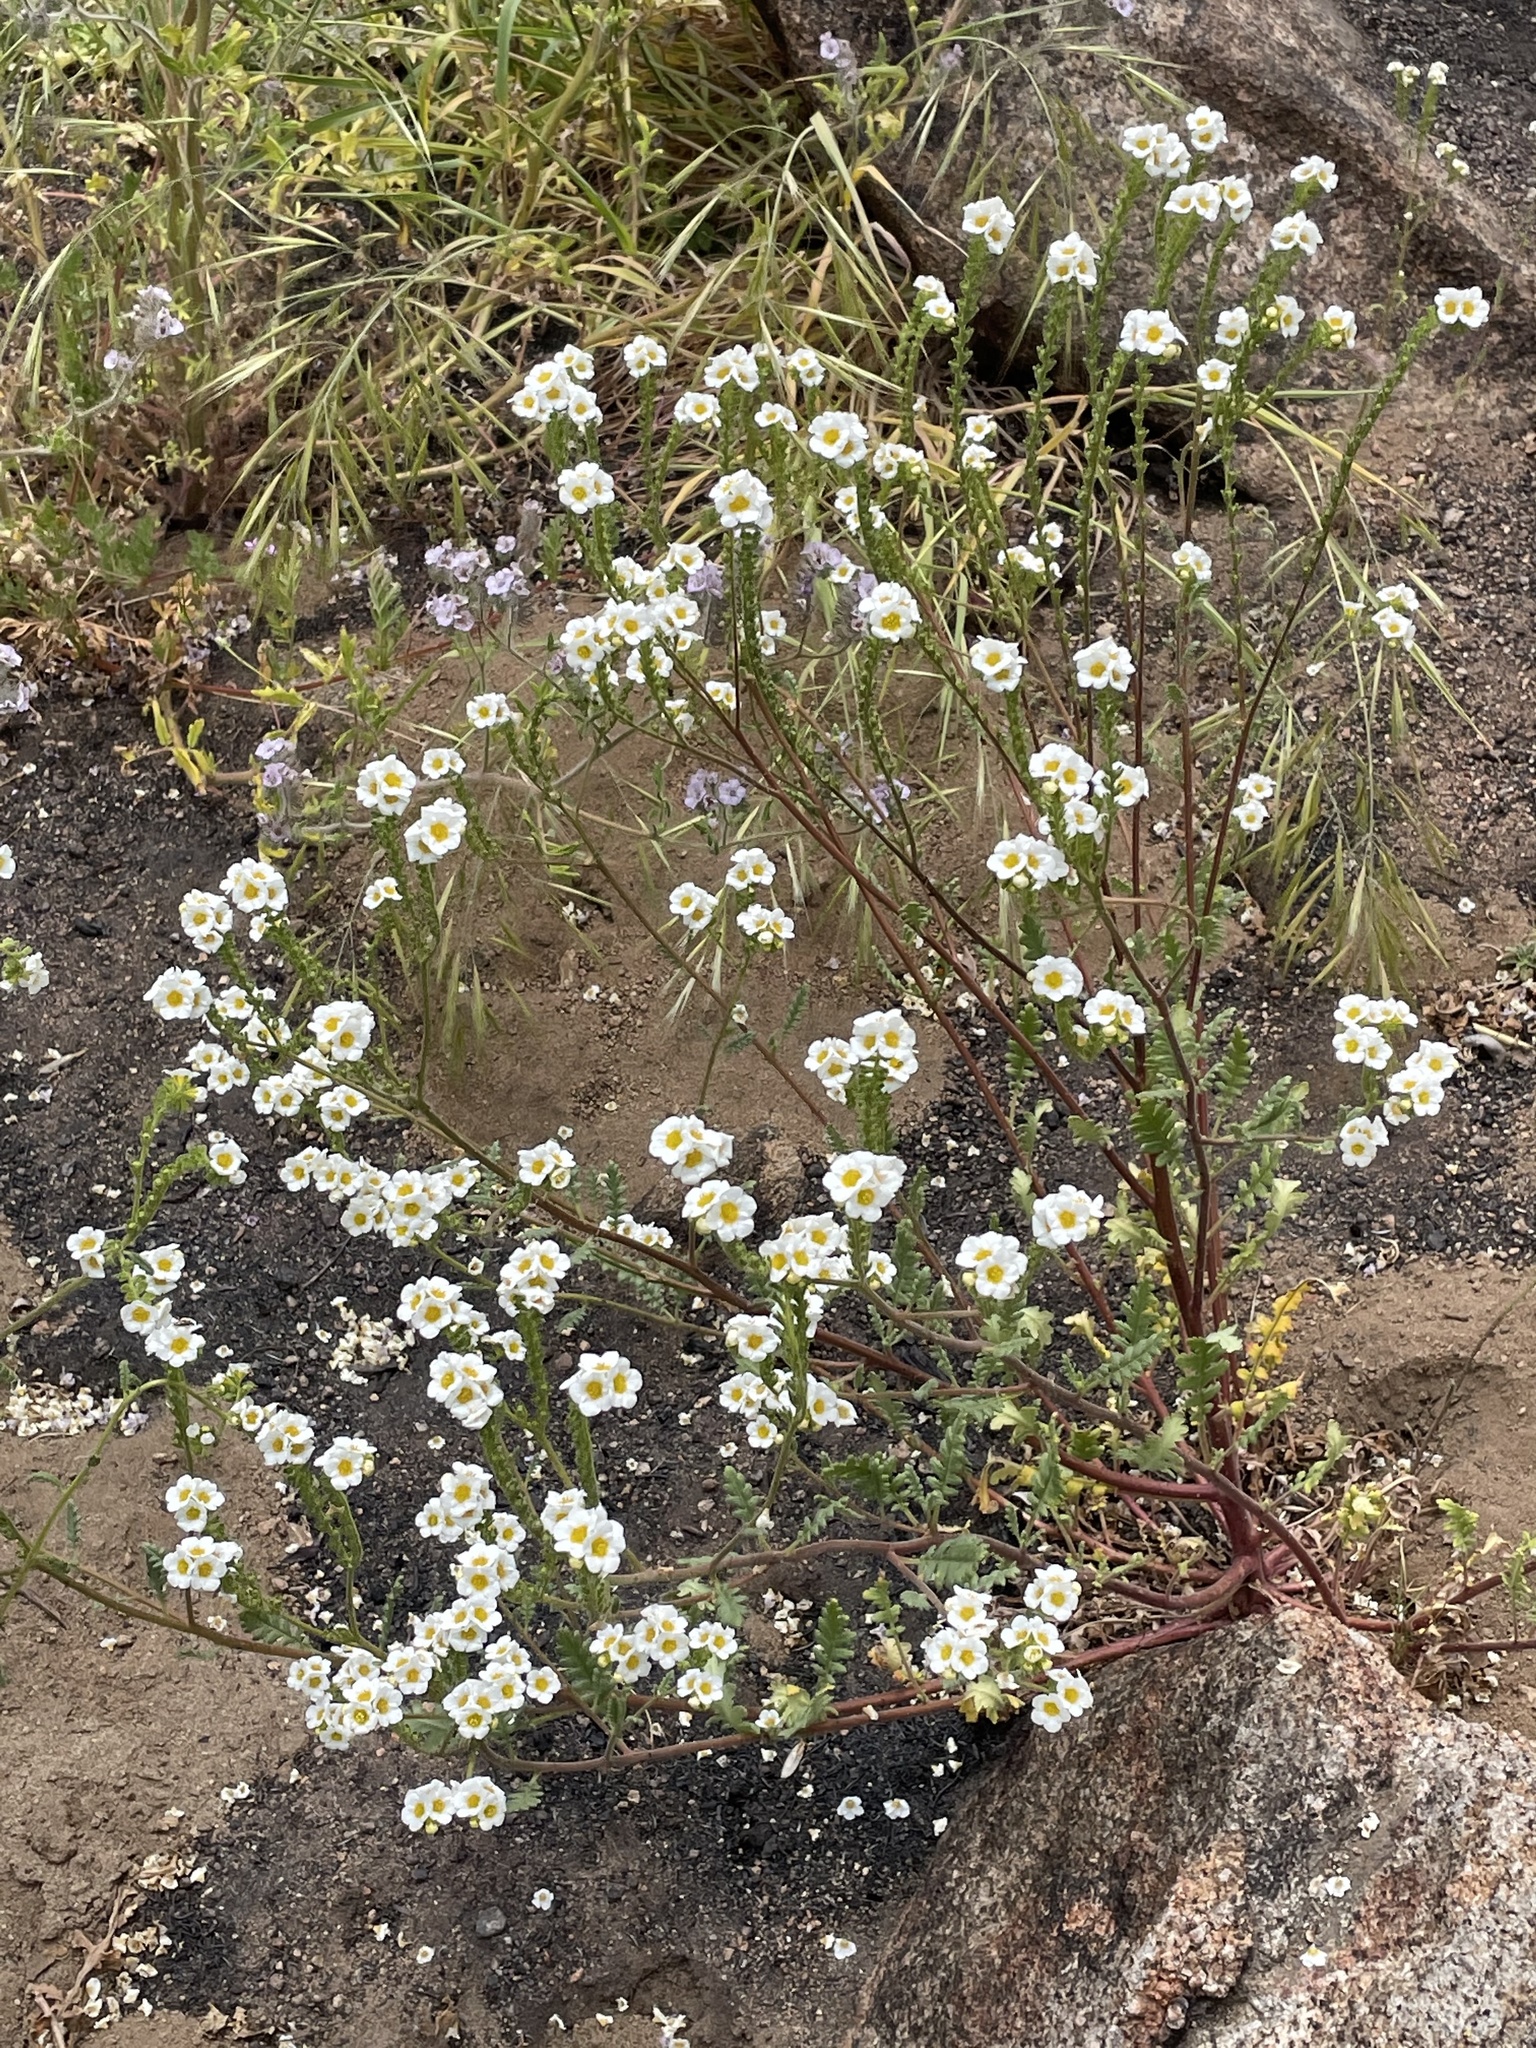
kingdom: Plantae
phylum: Tracheophyta
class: Magnoliopsida
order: Boraginales
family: Hydrophyllaceae
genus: Phacelia
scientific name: Phacelia brachyloba
